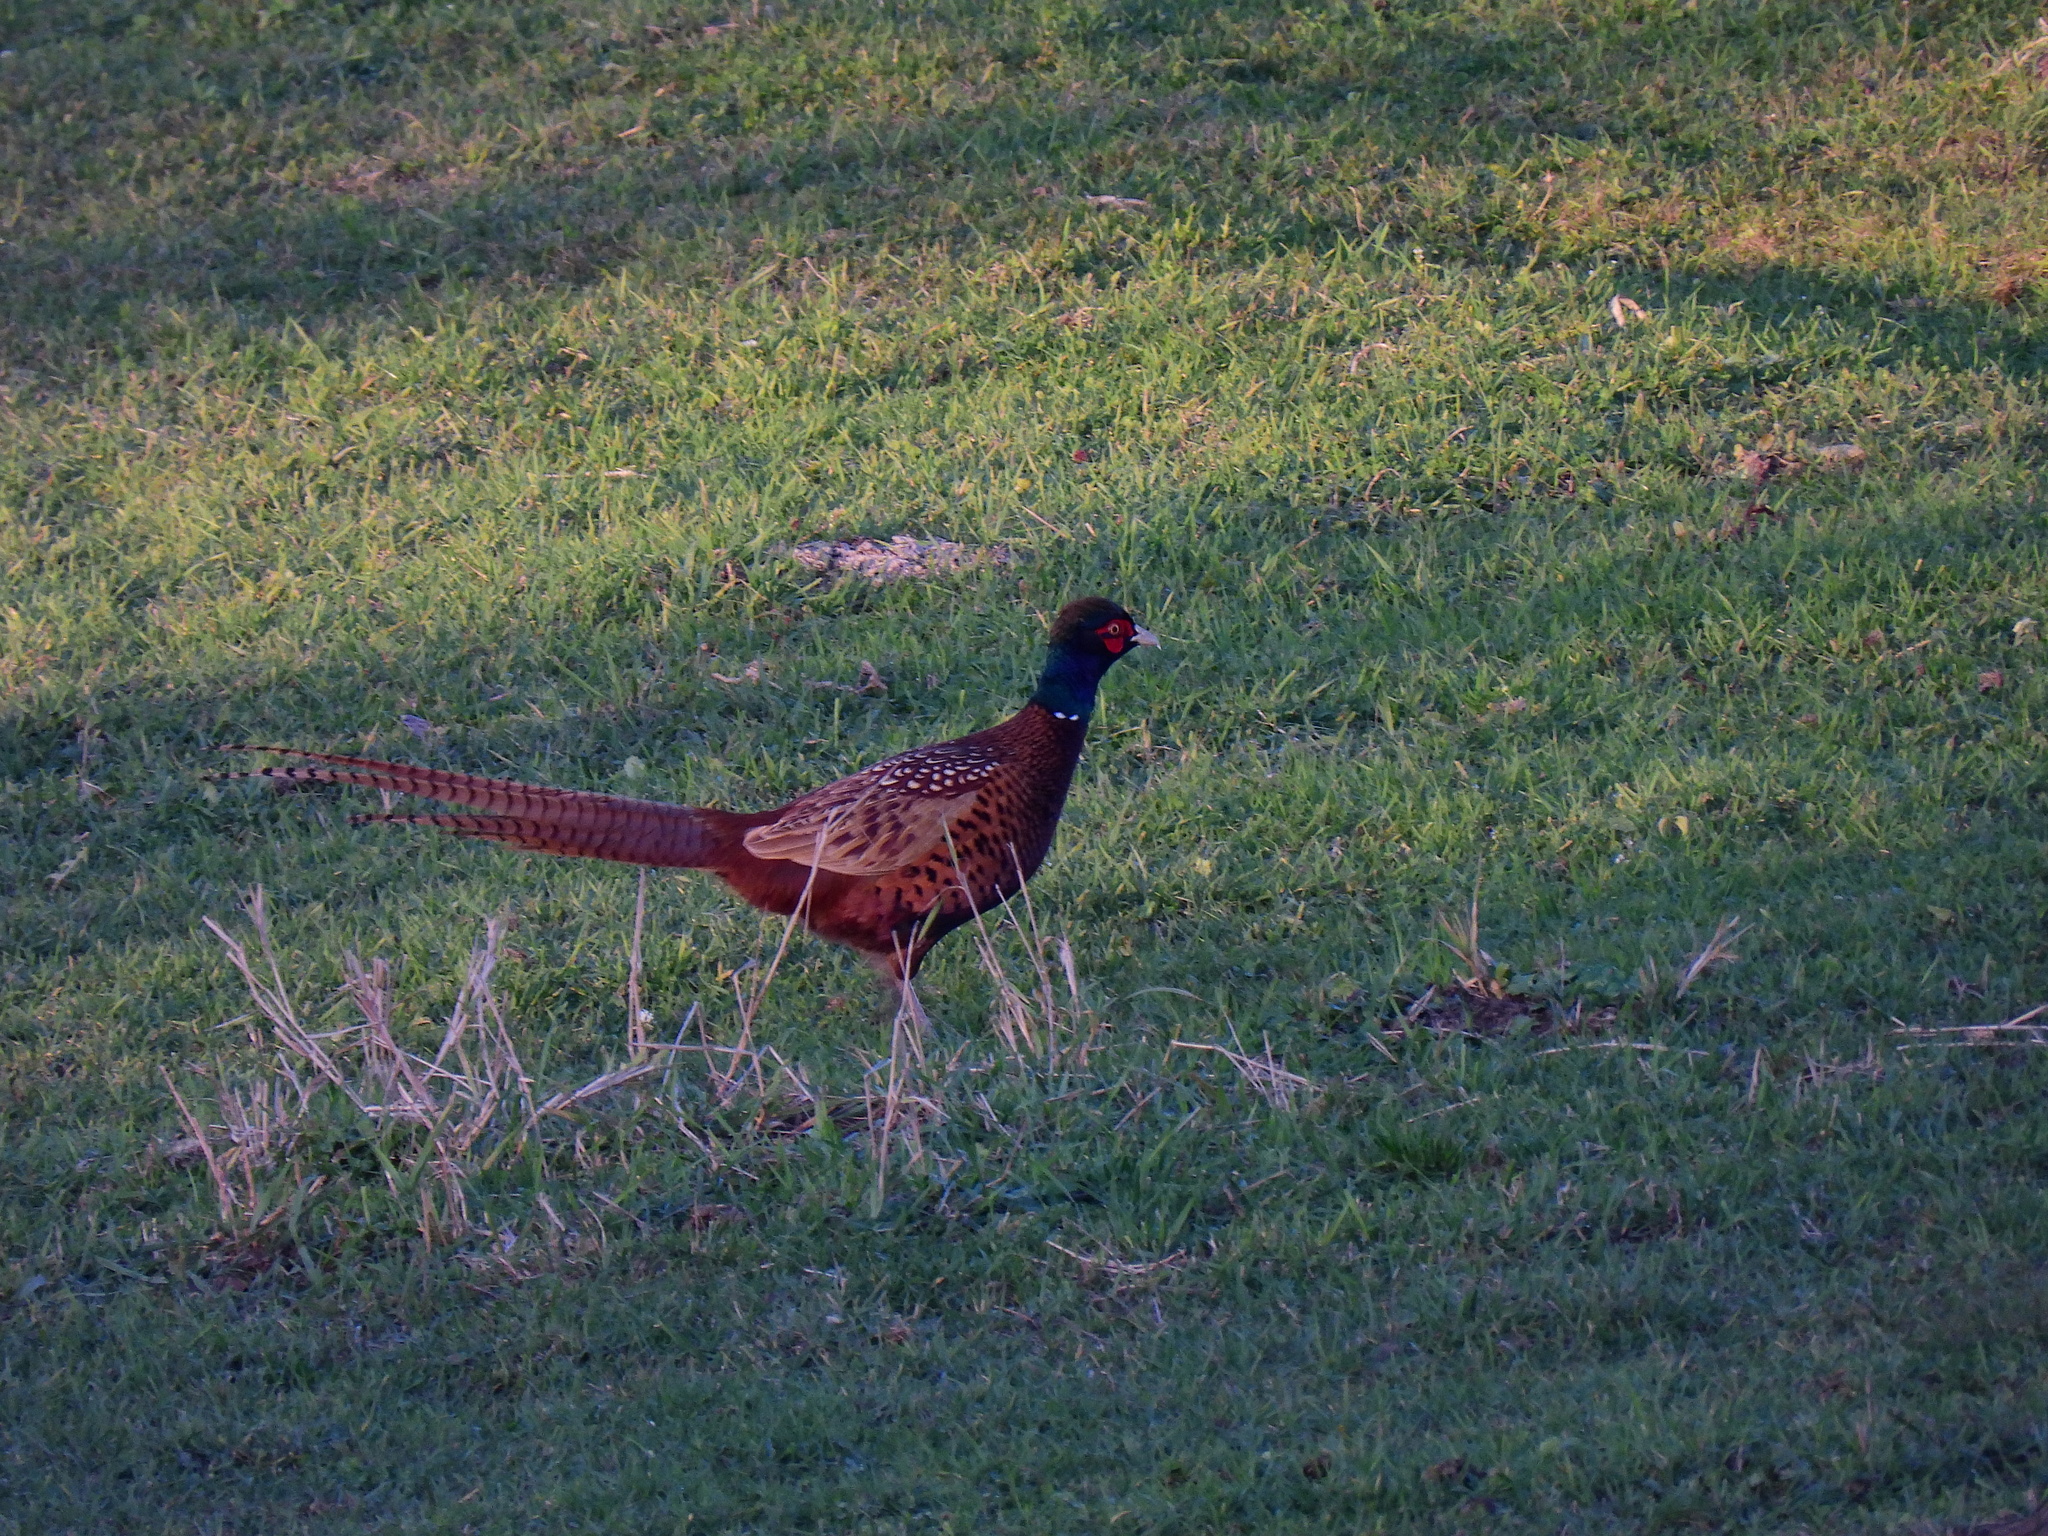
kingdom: Animalia
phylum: Chordata
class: Aves
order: Galliformes
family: Phasianidae
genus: Phasianus
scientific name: Phasianus colchicus
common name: Common pheasant
